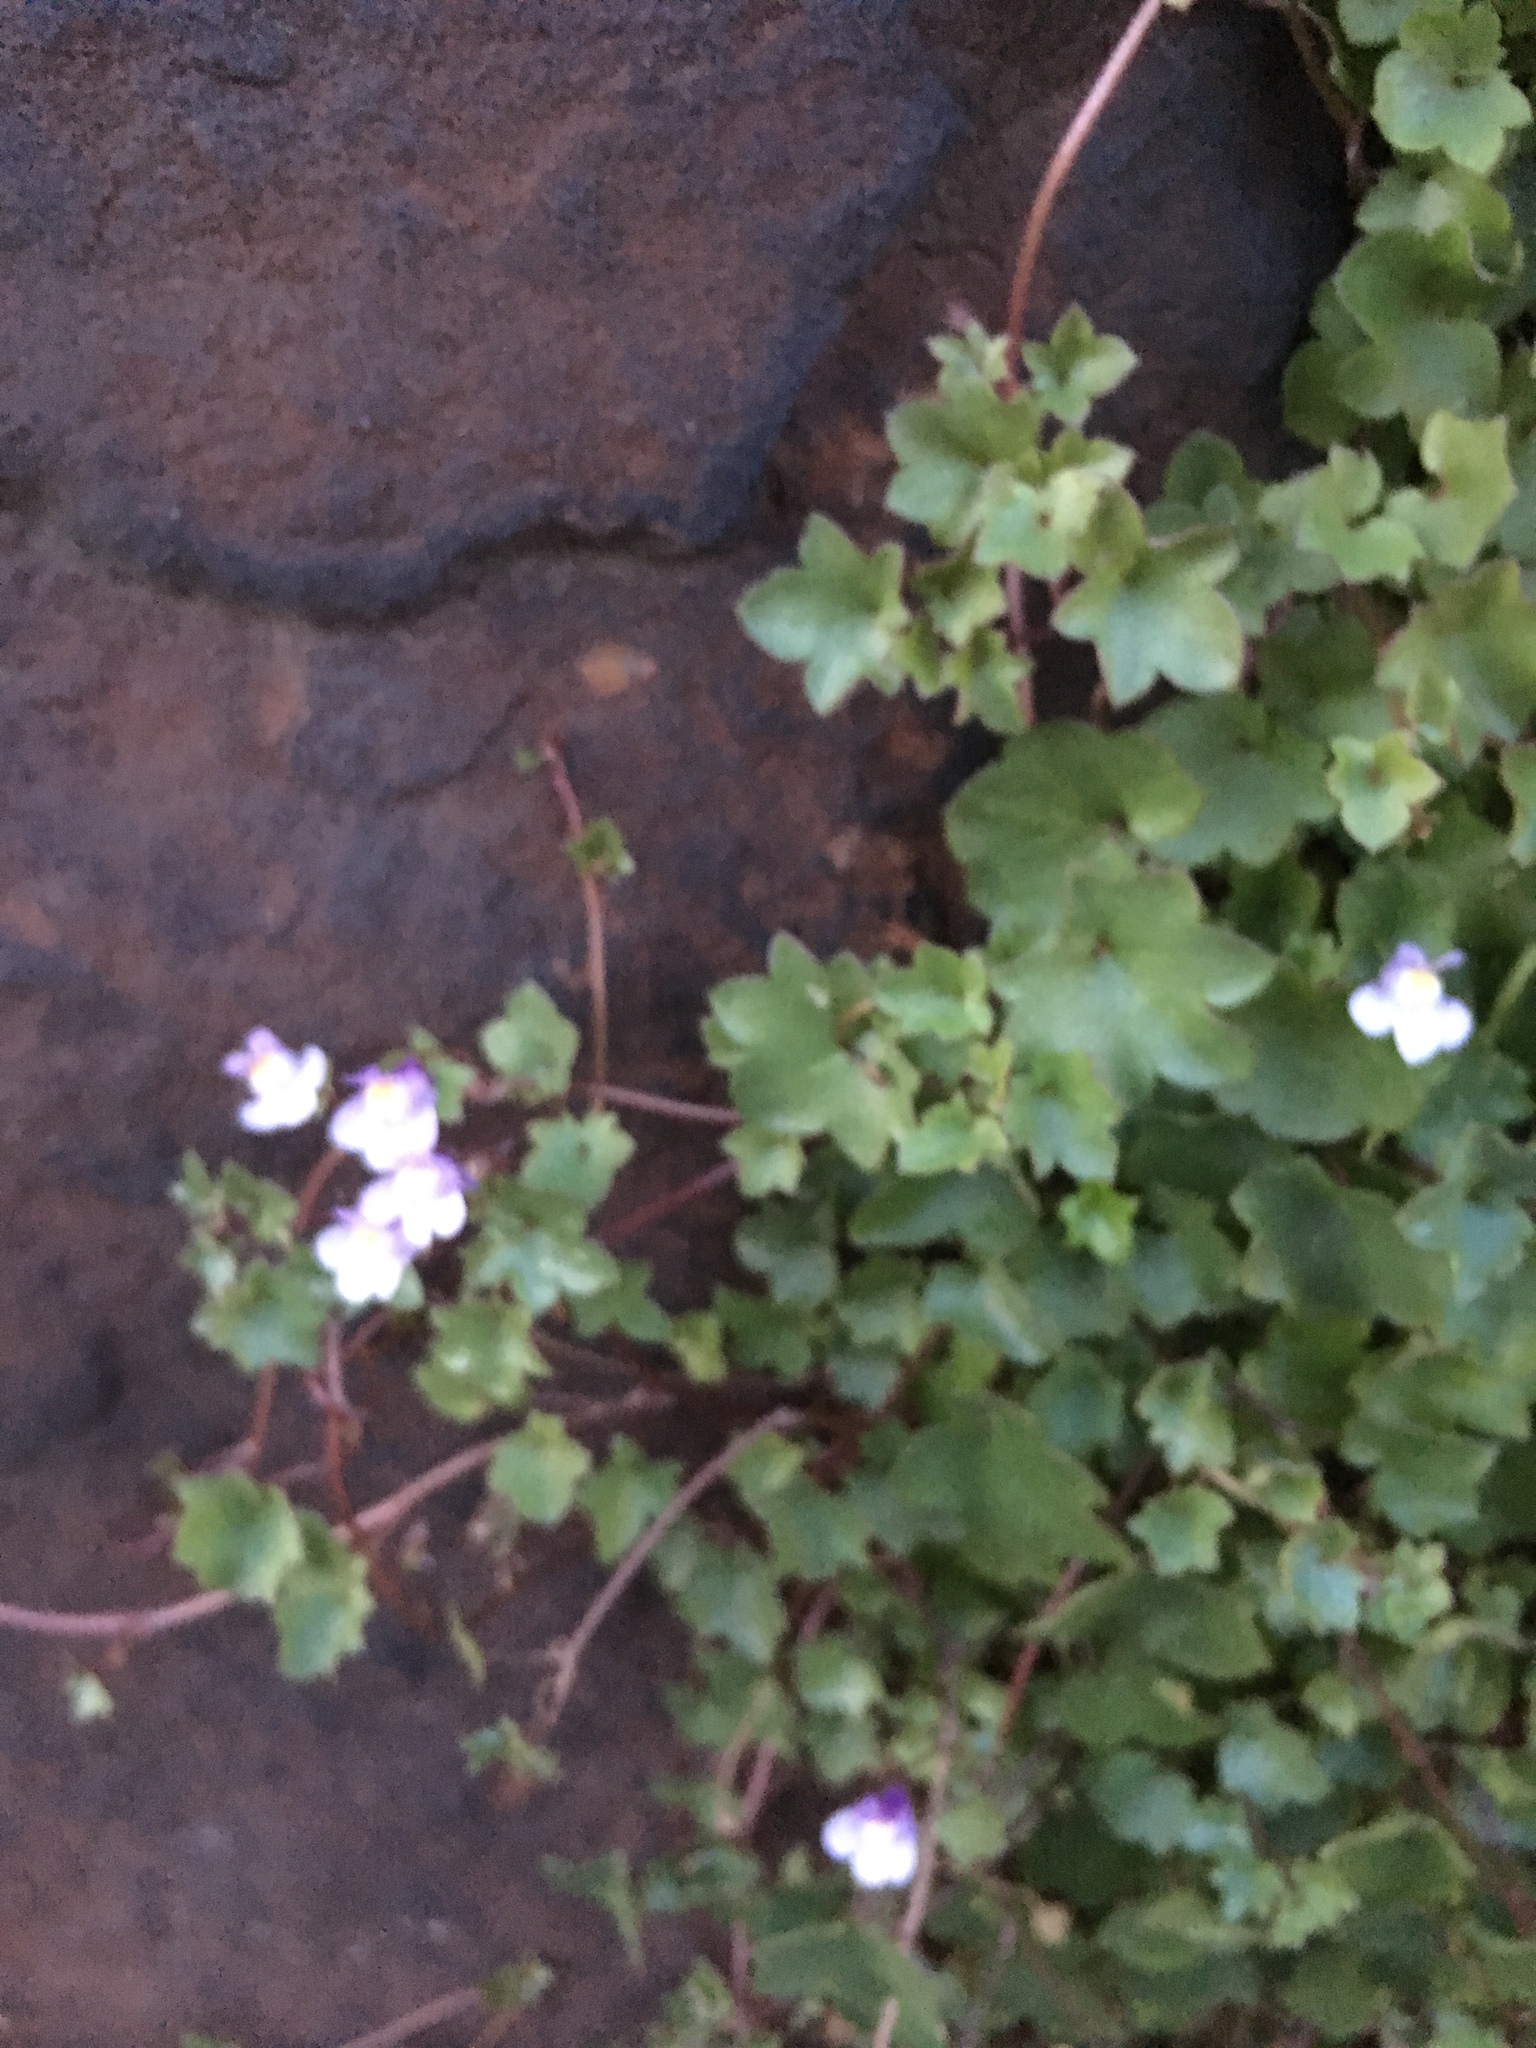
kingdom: Plantae
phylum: Tracheophyta
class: Magnoliopsida
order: Lamiales
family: Plantaginaceae
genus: Cymbalaria
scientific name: Cymbalaria muralis
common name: Ivy-leaved toadflax
